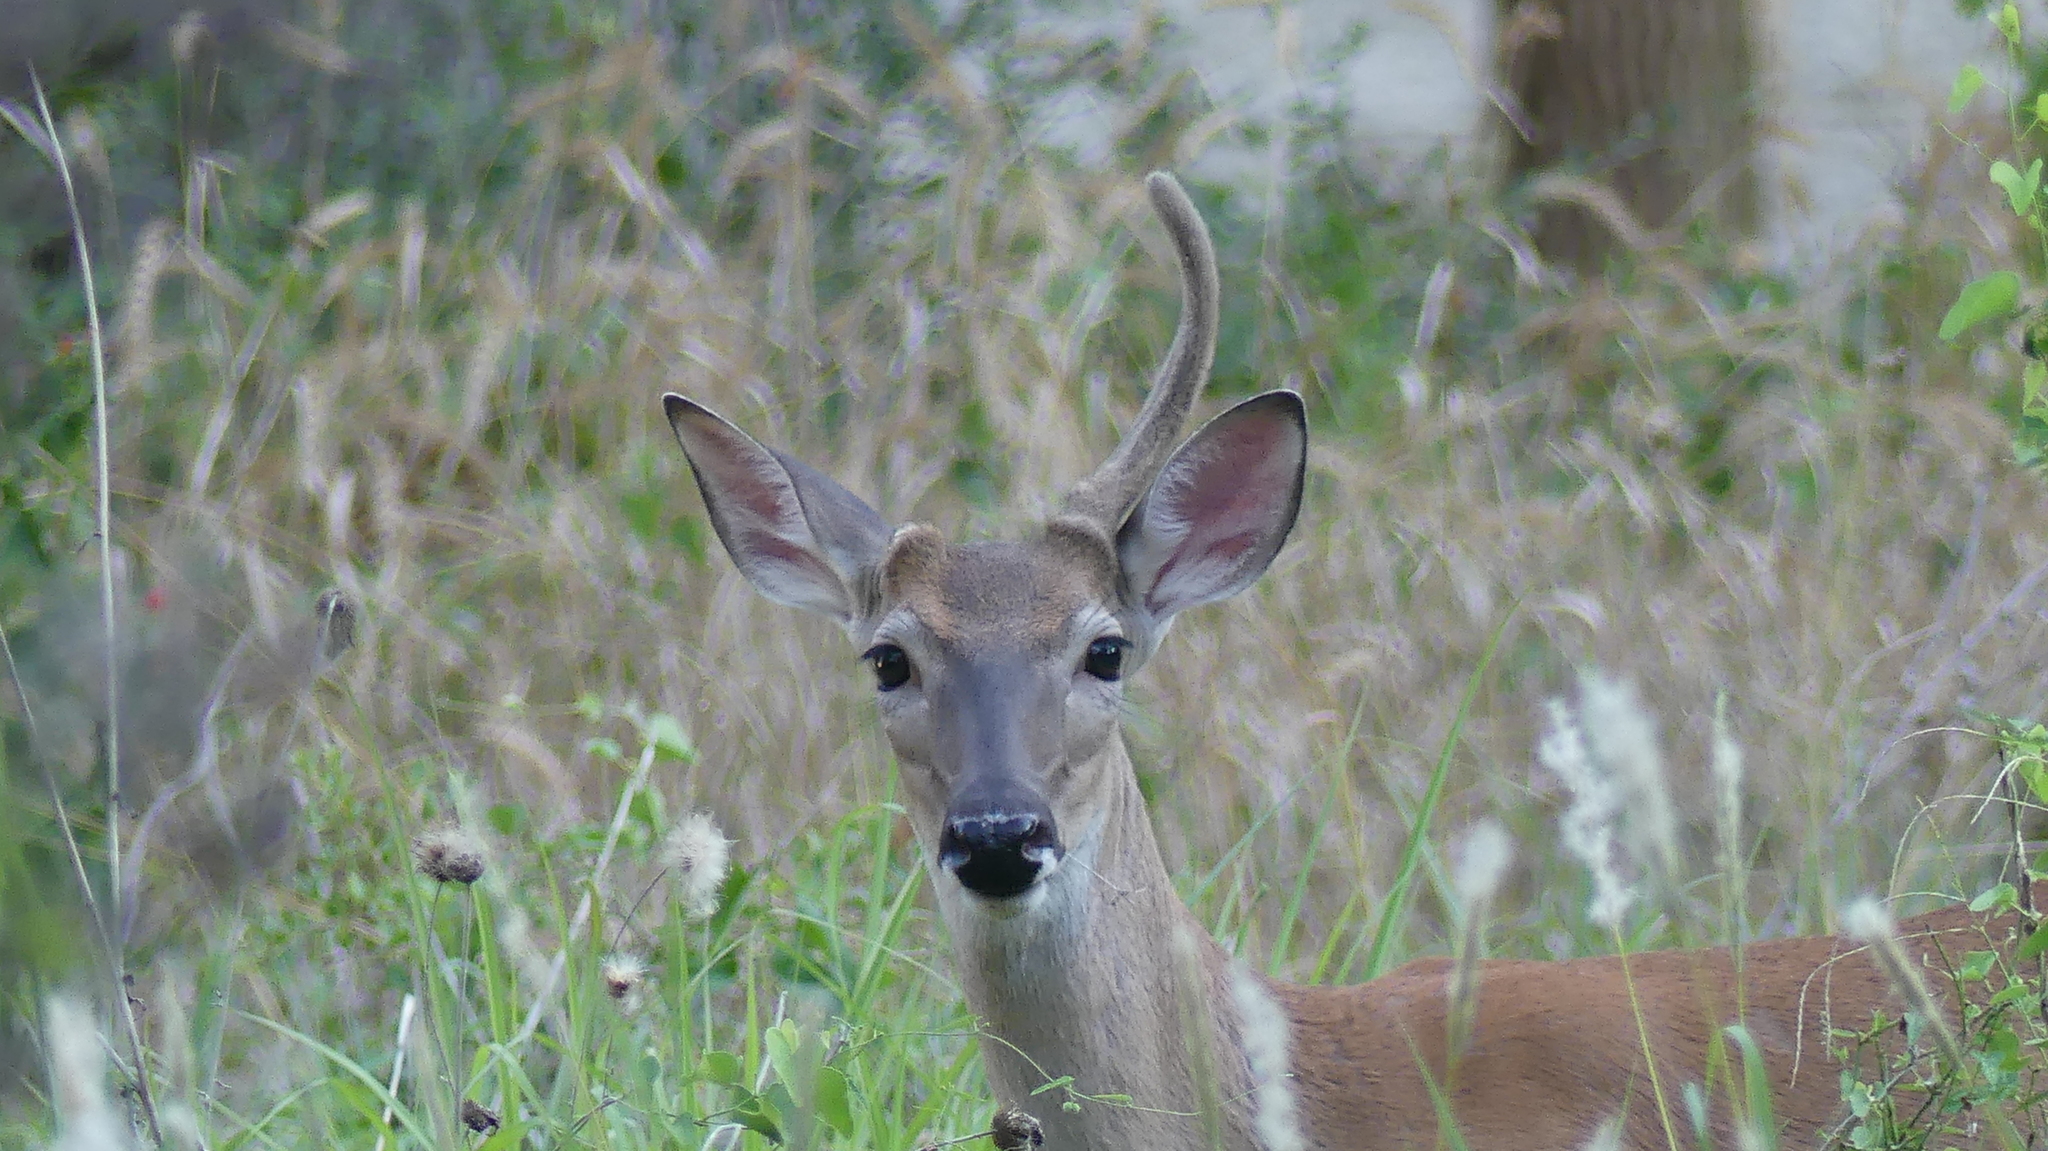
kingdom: Animalia
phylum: Chordata
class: Mammalia
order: Artiodactyla
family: Cervidae
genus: Odocoileus
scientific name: Odocoileus virginianus
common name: White-tailed deer
